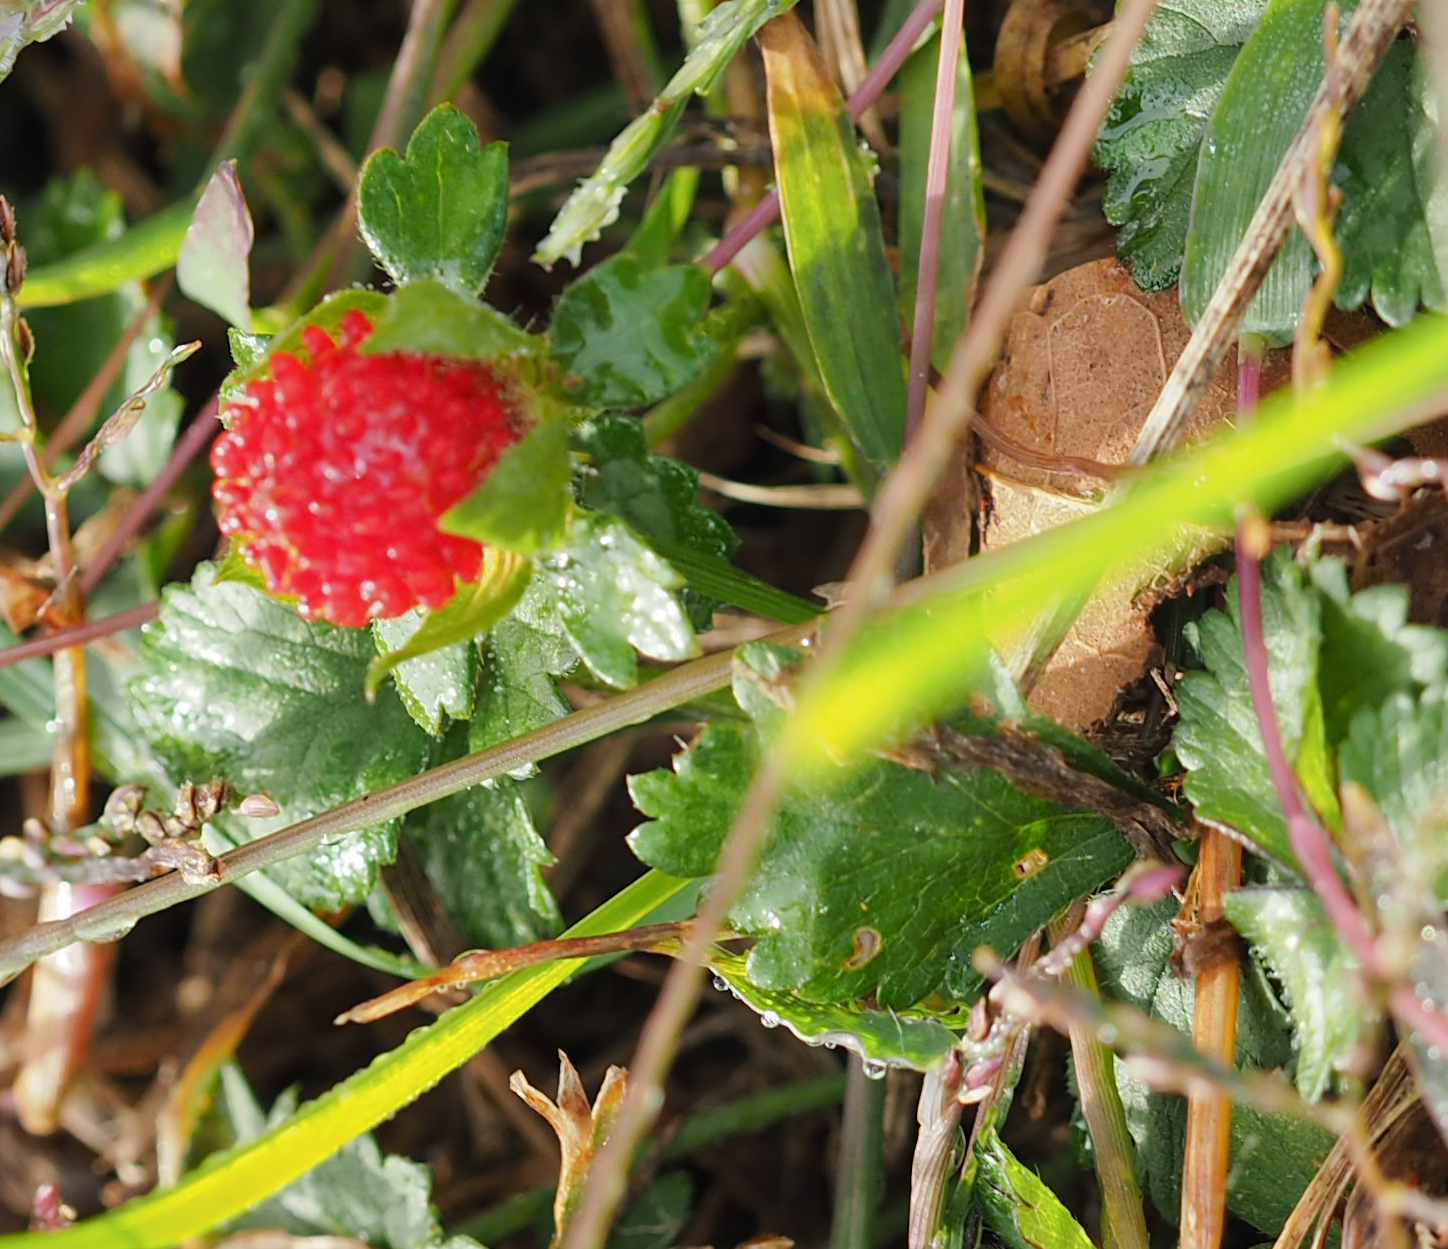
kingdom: Plantae
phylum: Tracheophyta
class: Magnoliopsida
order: Rosales
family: Rosaceae
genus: Potentilla
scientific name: Potentilla indica
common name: Yellow-flowered strawberry
